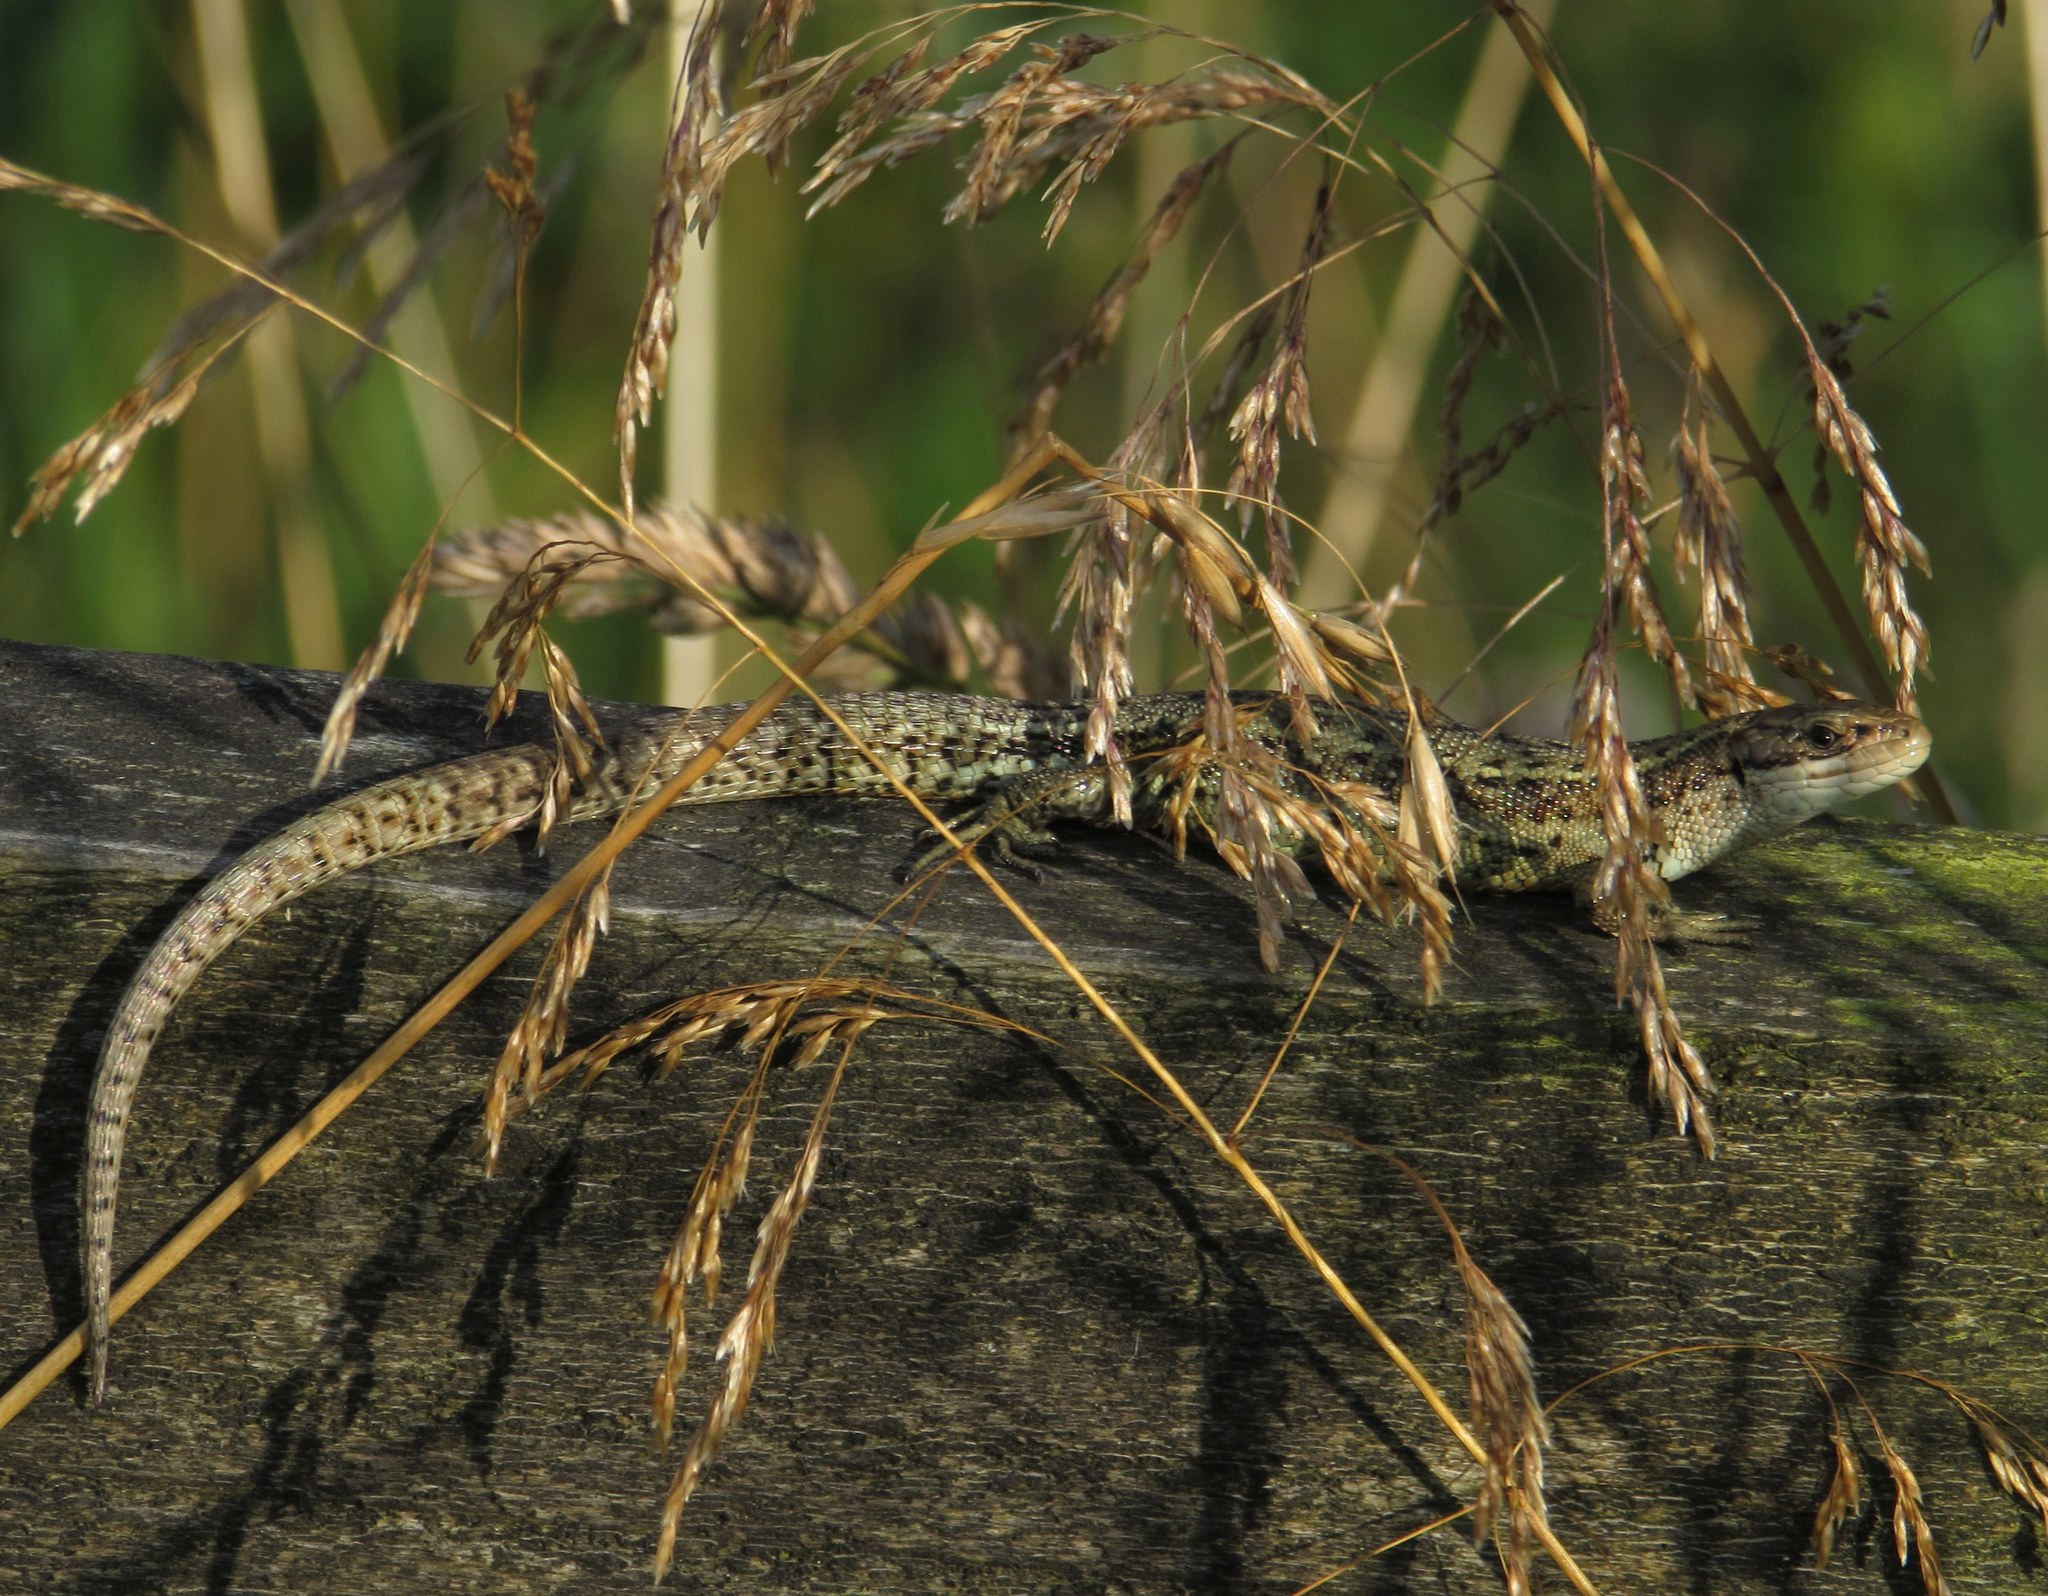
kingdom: Animalia
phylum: Chordata
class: Squamata
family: Lacertidae
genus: Zootoca
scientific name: Zootoca vivipara
